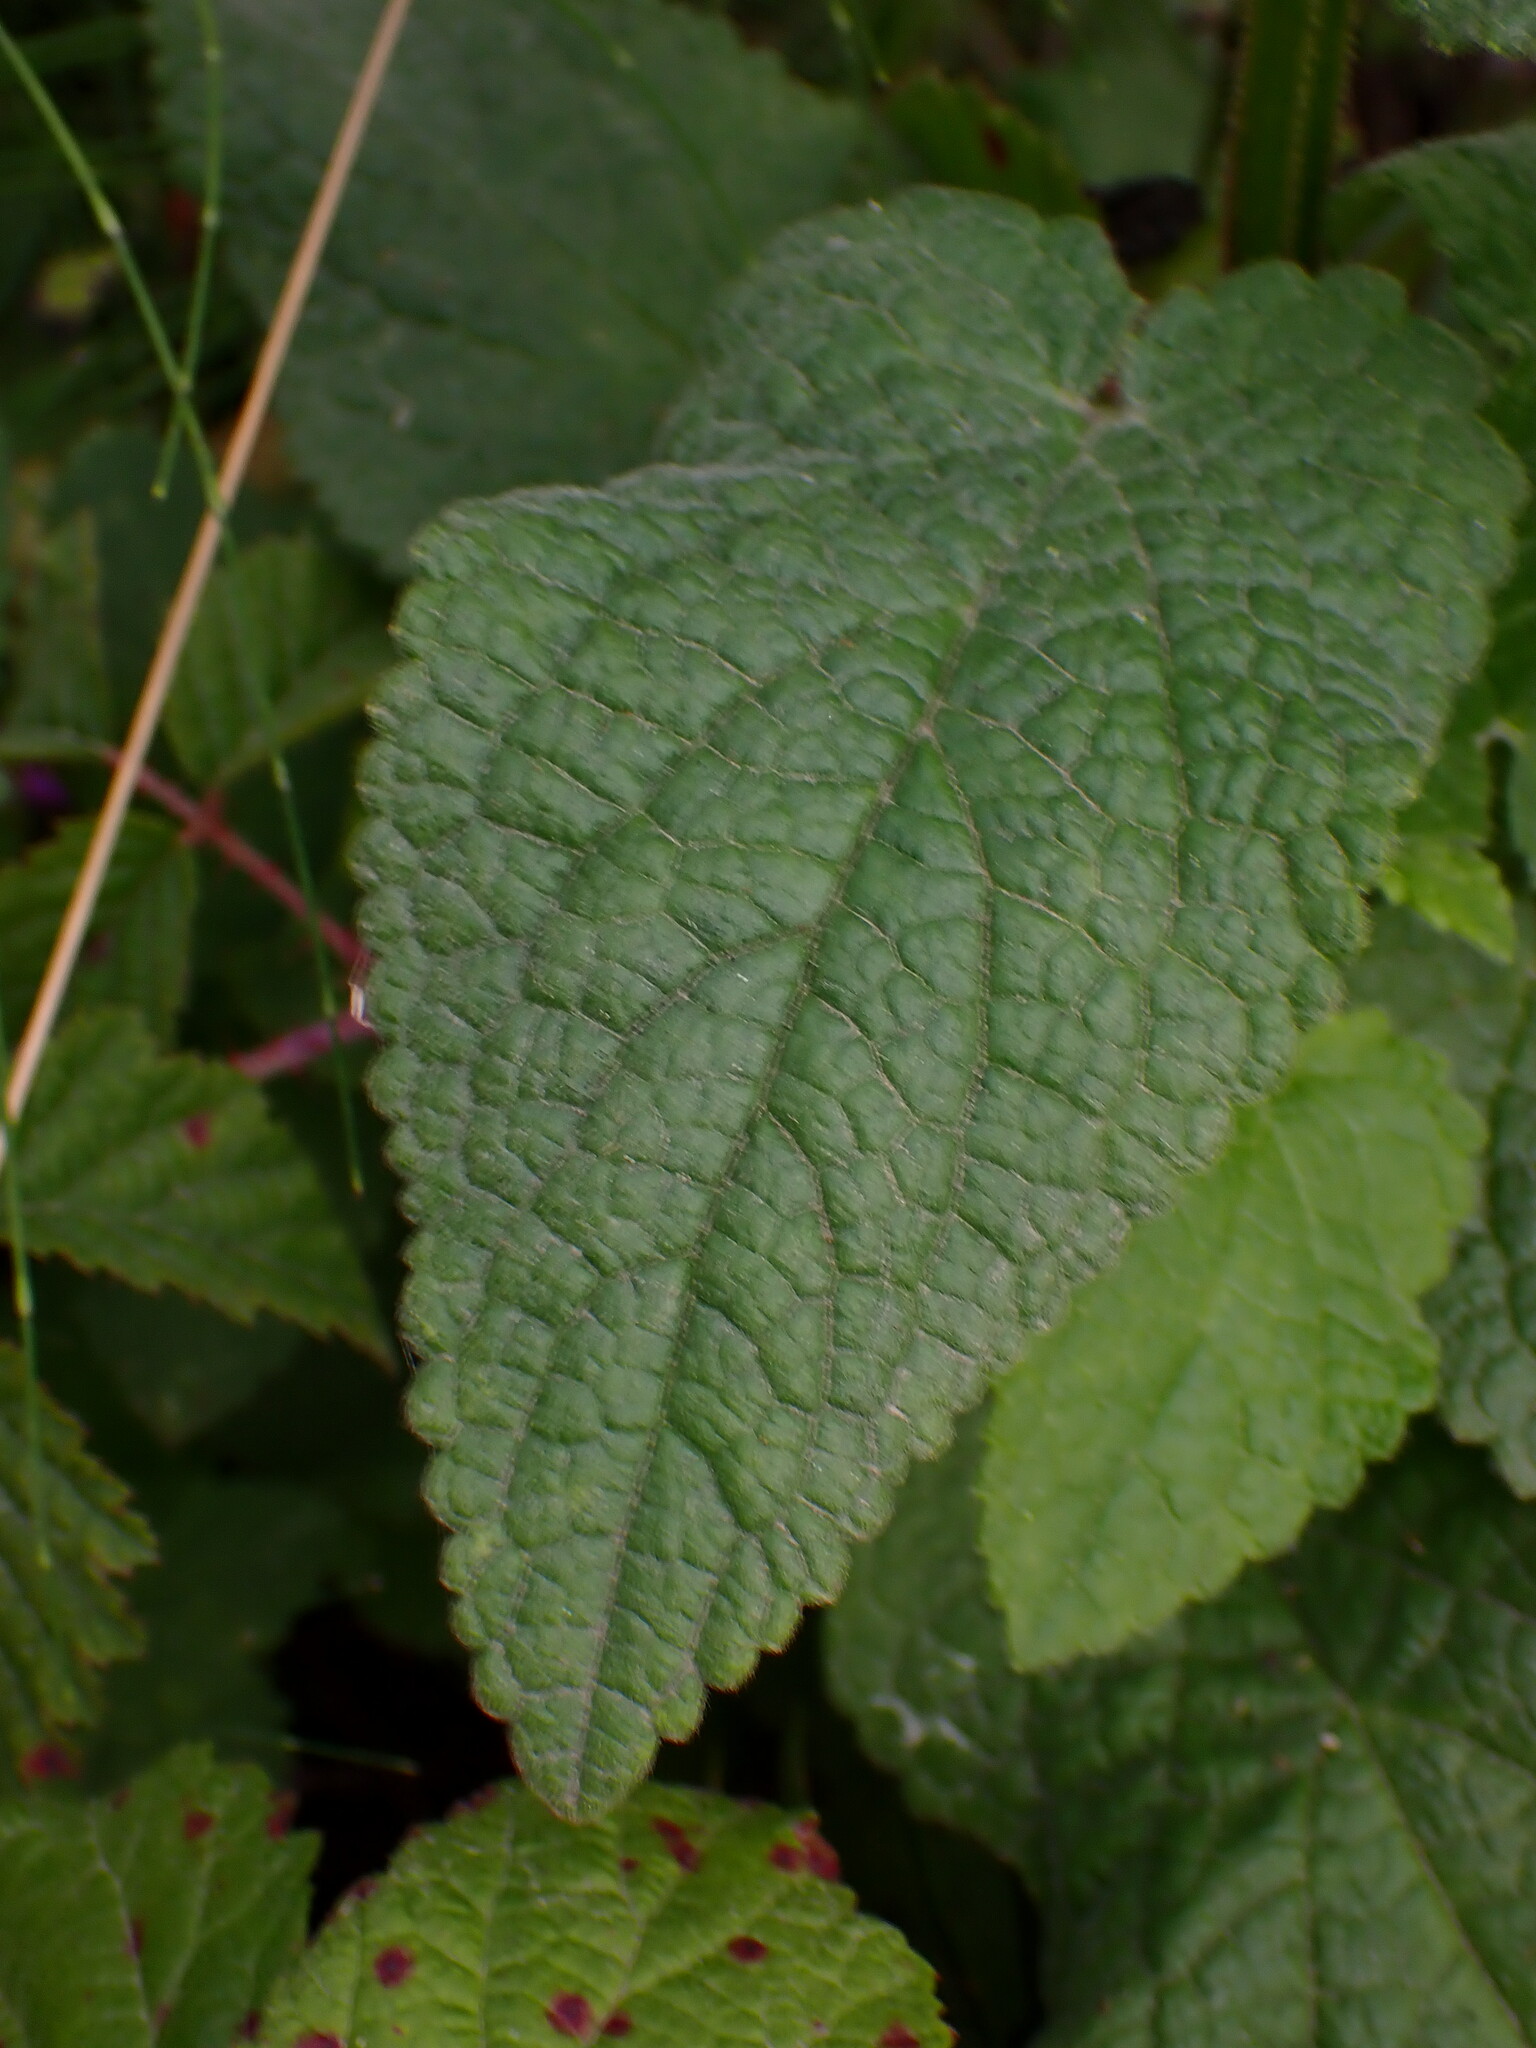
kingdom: Plantae
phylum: Tracheophyta
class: Magnoliopsida
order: Lamiales
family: Lamiaceae
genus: Stachys
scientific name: Stachys chamissonis
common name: Coastal hedge-nettle
